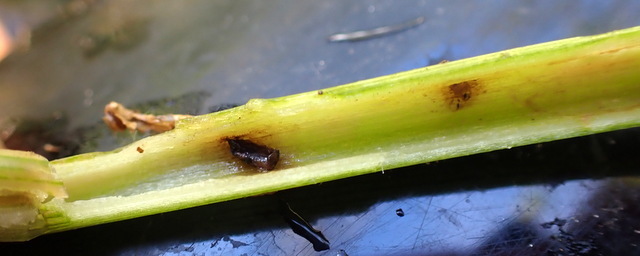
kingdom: Animalia
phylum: Arthropoda
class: Insecta
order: Coleoptera
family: Chrysomelidae
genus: Agasicles
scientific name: Agasicles hygrophila
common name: Alligatorweed flea beetle
